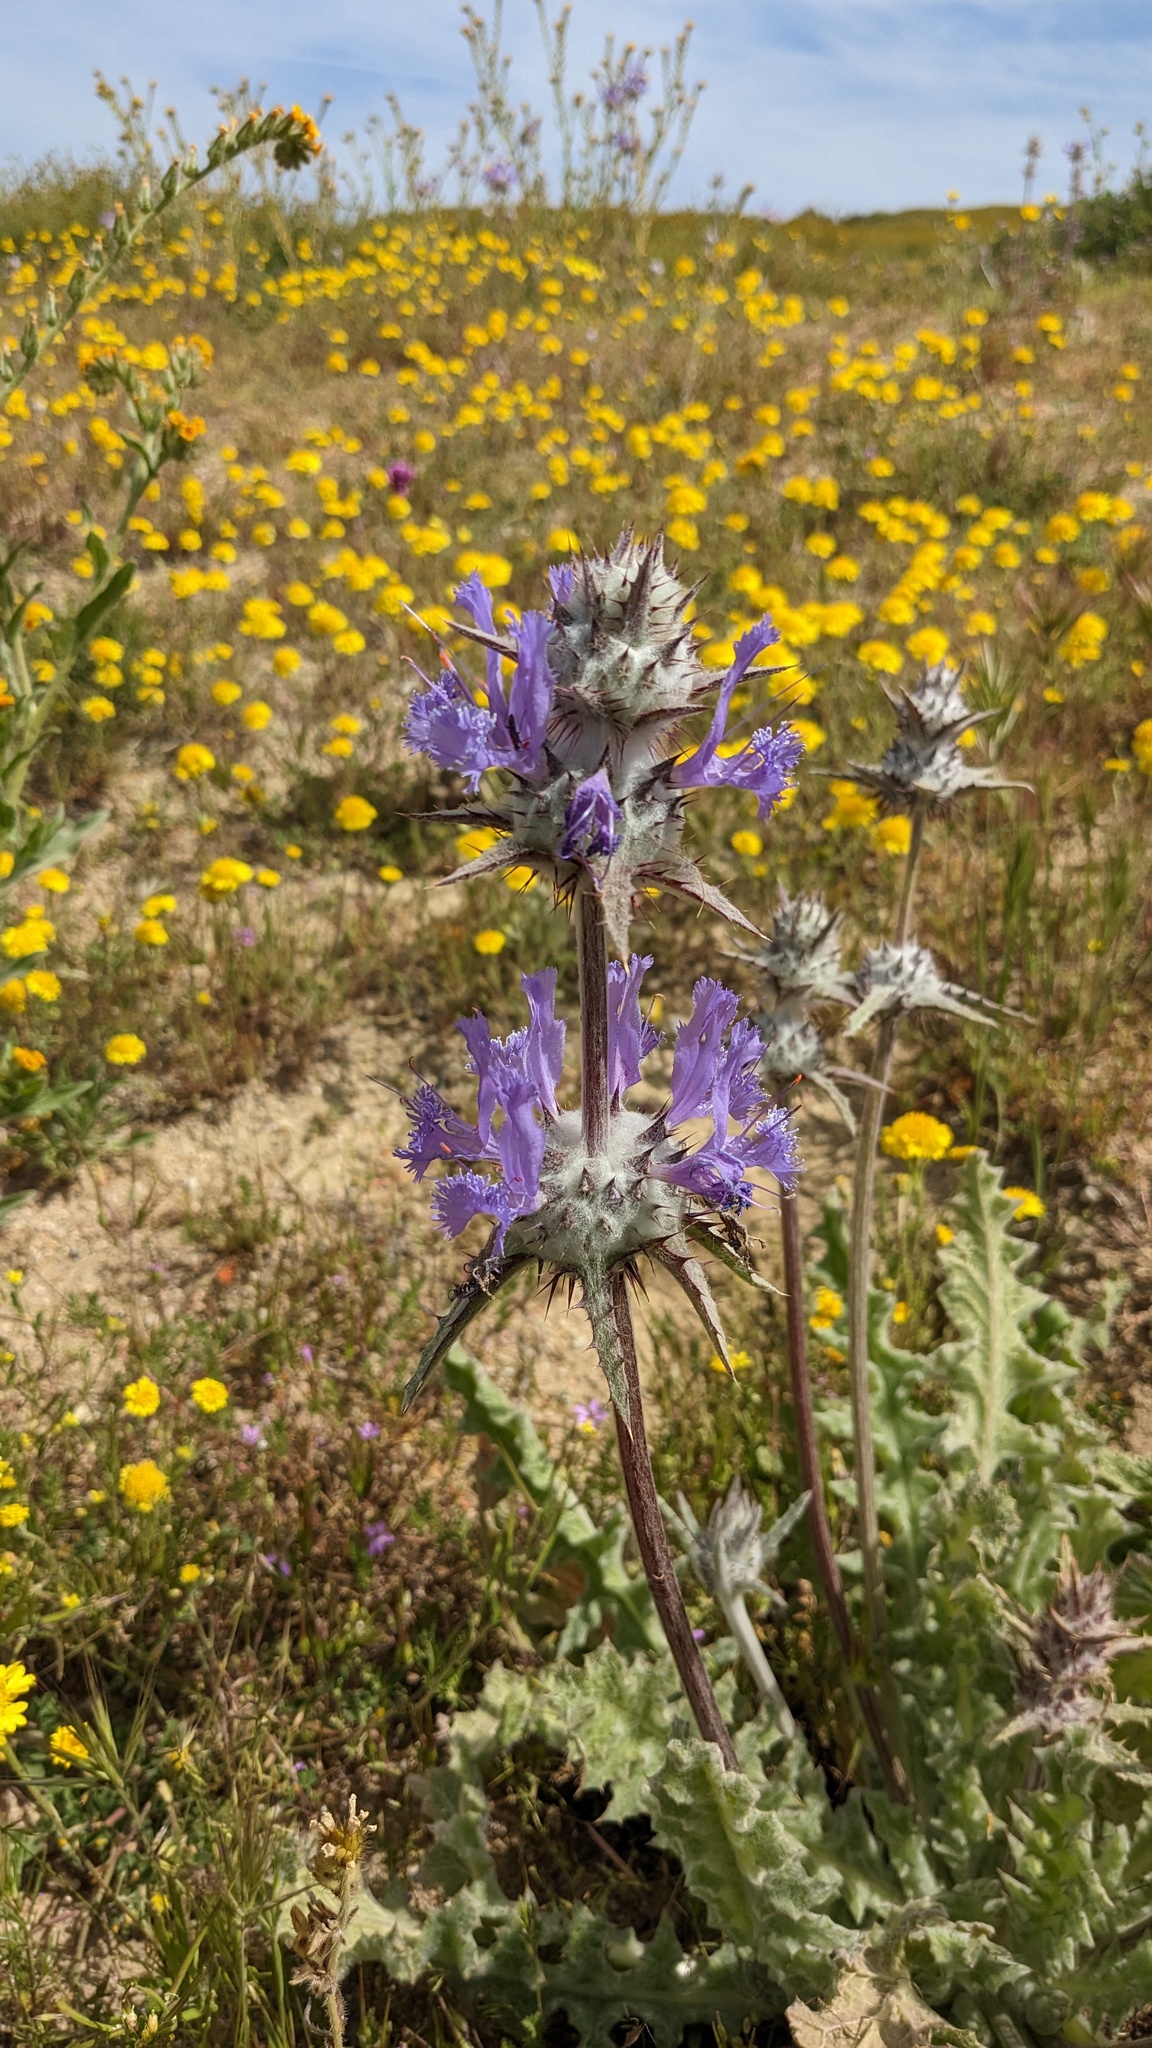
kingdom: Plantae
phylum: Tracheophyta
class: Magnoliopsida
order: Lamiales
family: Lamiaceae
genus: Salvia
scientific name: Salvia carduacea
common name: Thistle sage
